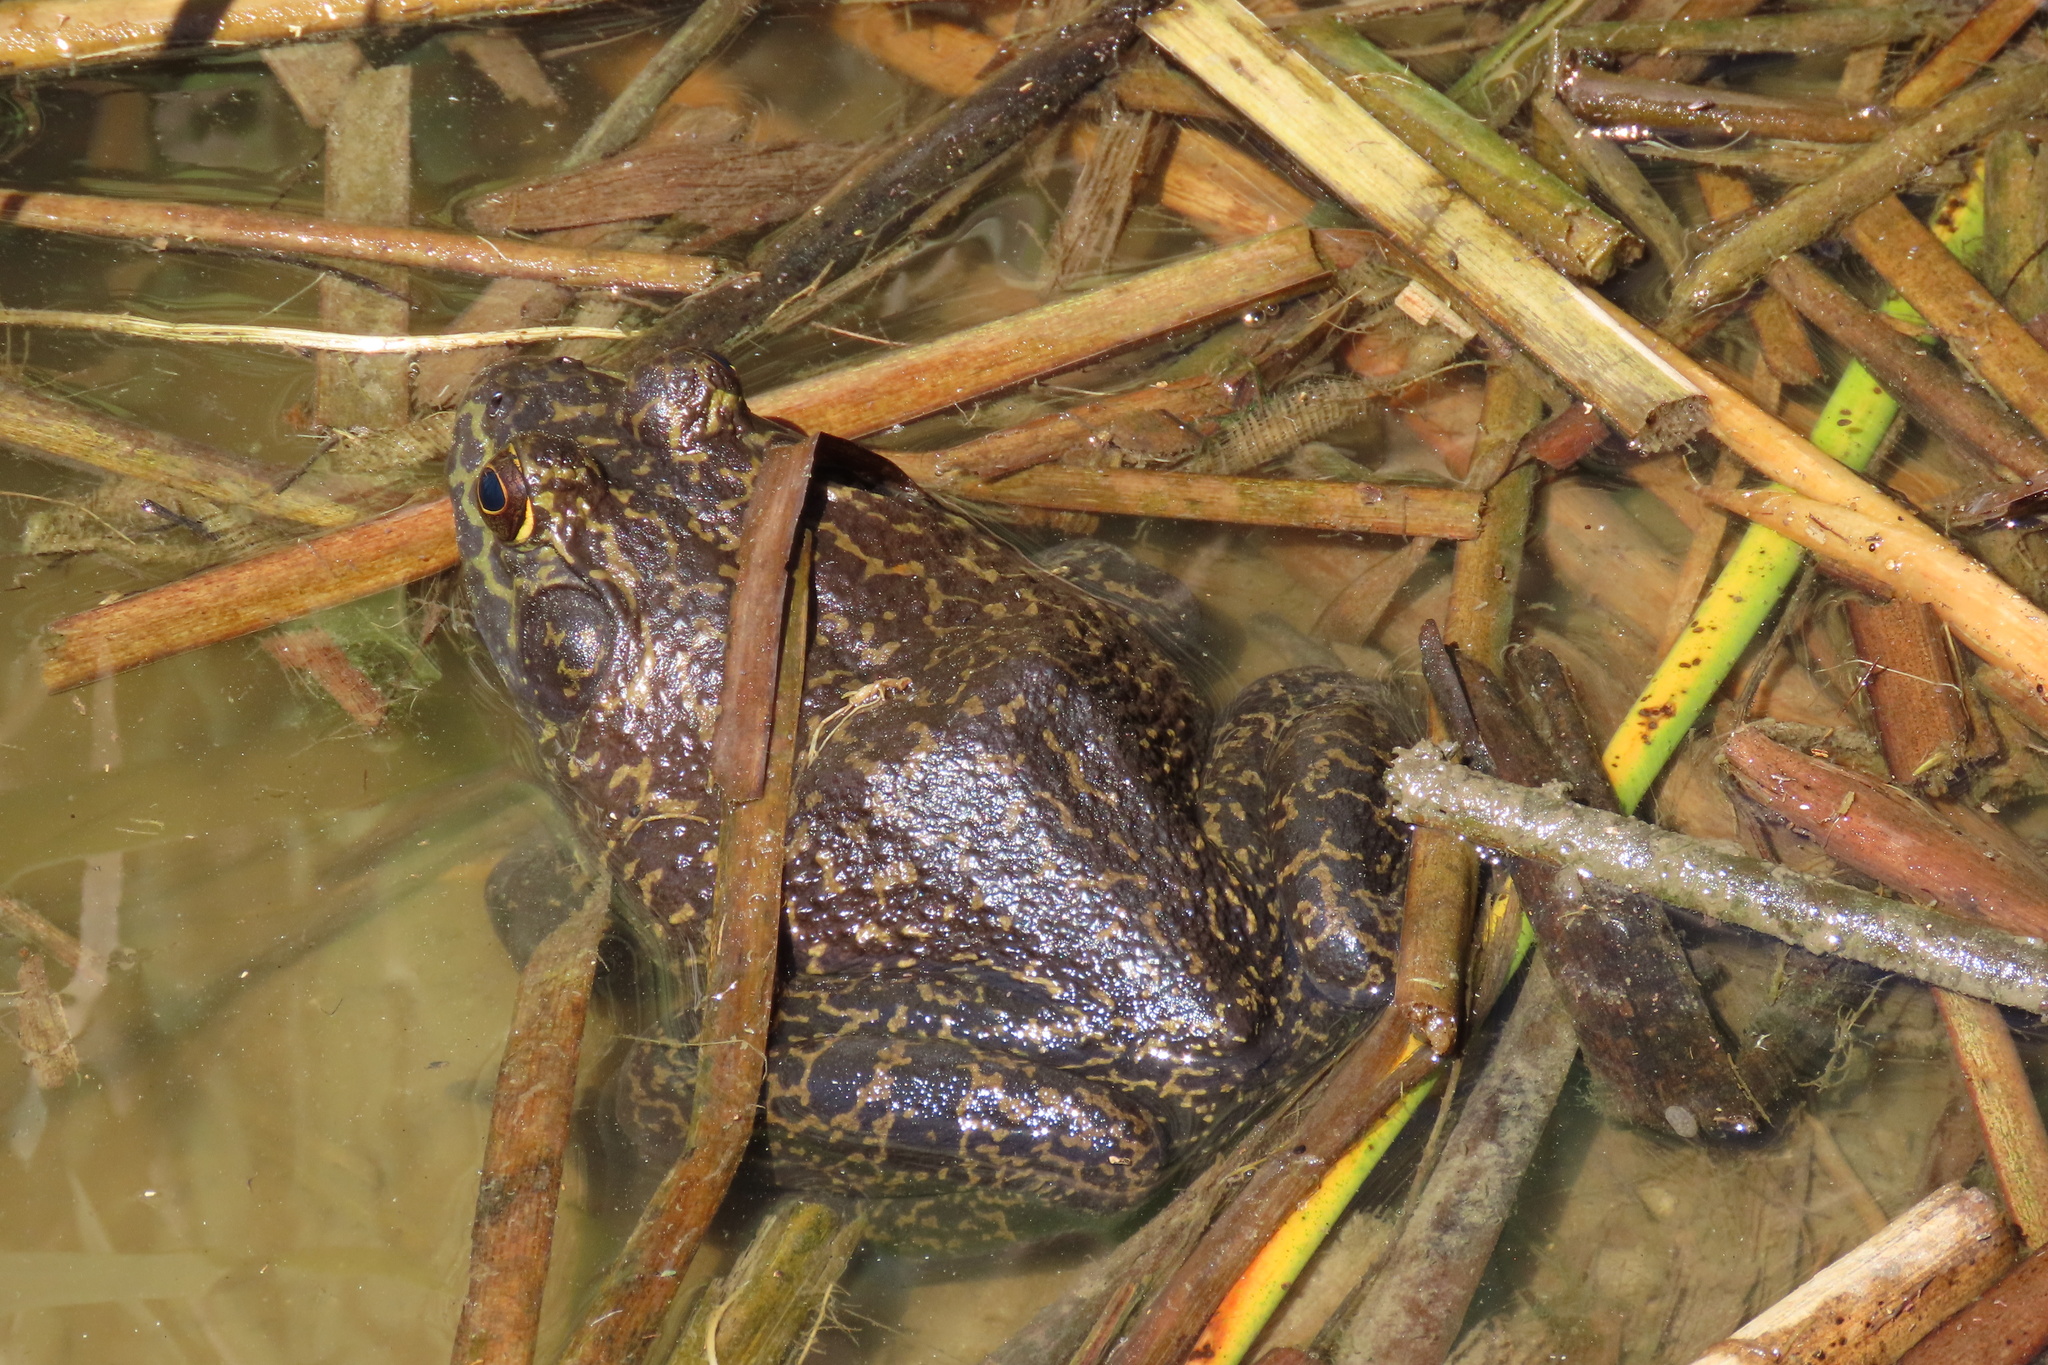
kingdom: Animalia
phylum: Chordata
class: Amphibia
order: Anura
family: Ranidae
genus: Lithobates
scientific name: Lithobates catesbeianus
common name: American bullfrog
